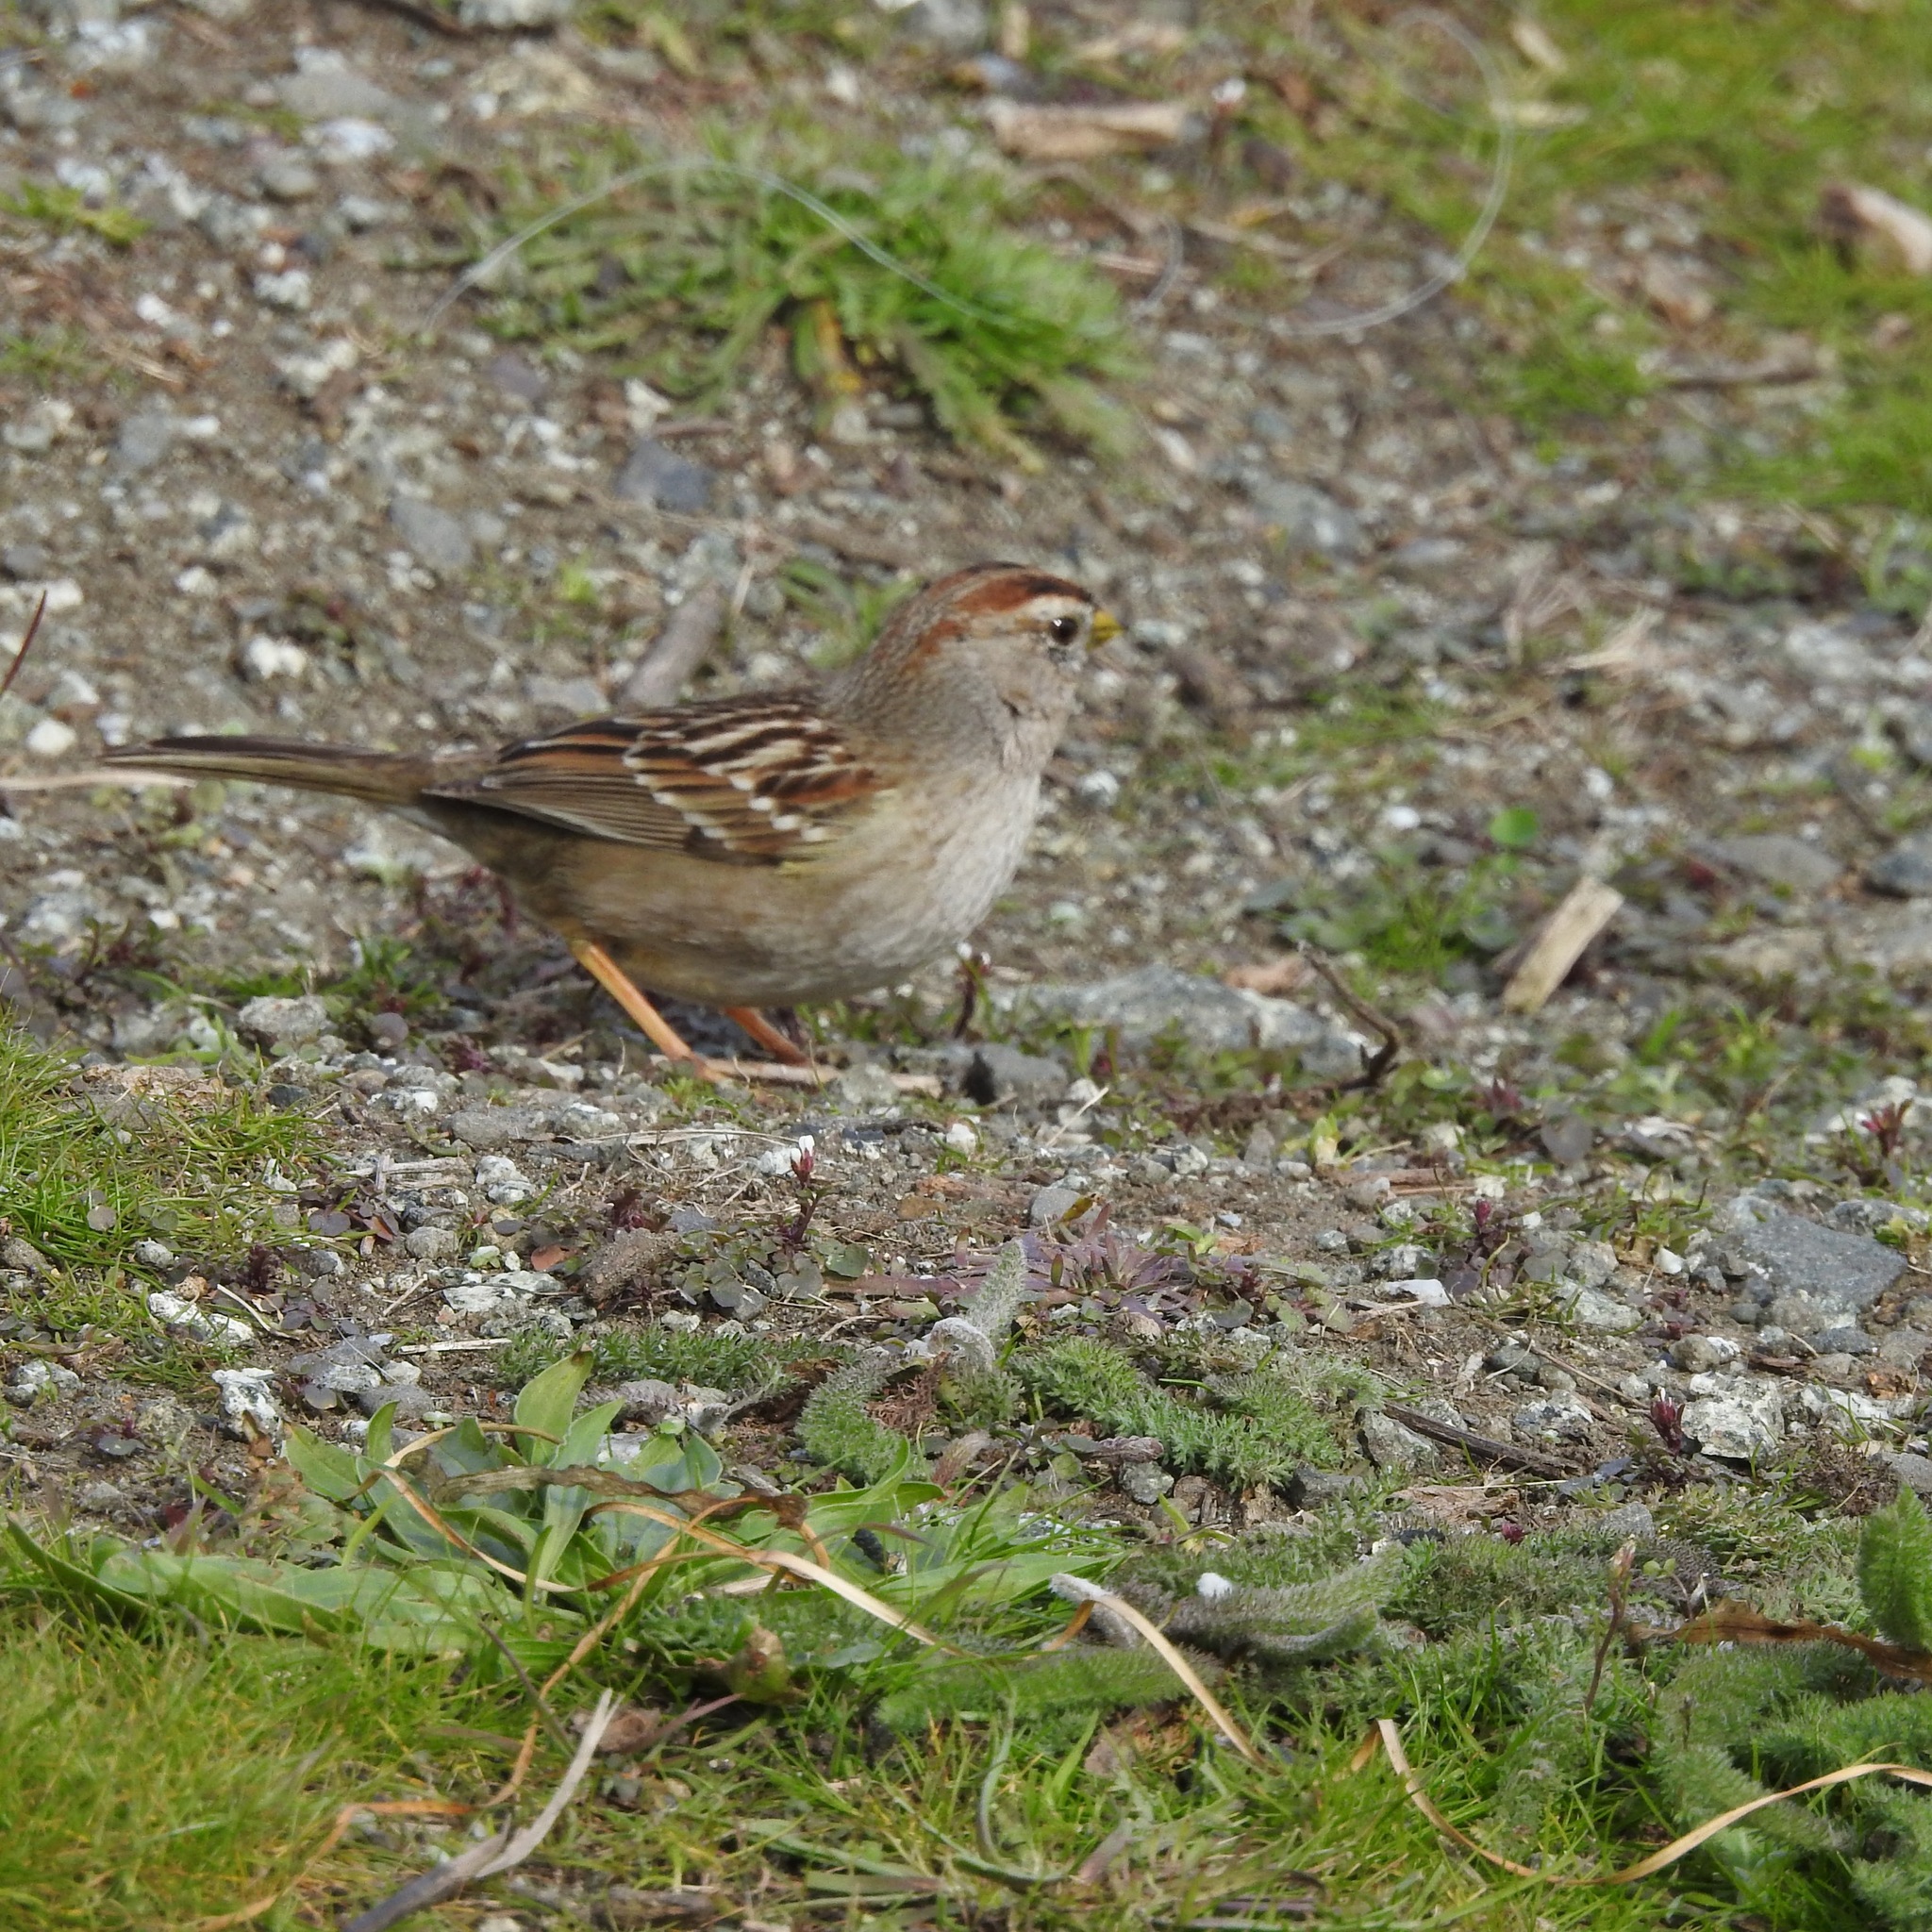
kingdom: Animalia
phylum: Chordata
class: Aves
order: Passeriformes
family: Passerellidae
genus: Zonotrichia
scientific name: Zonotrichia leucophrys
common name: White-crowned sparrow
